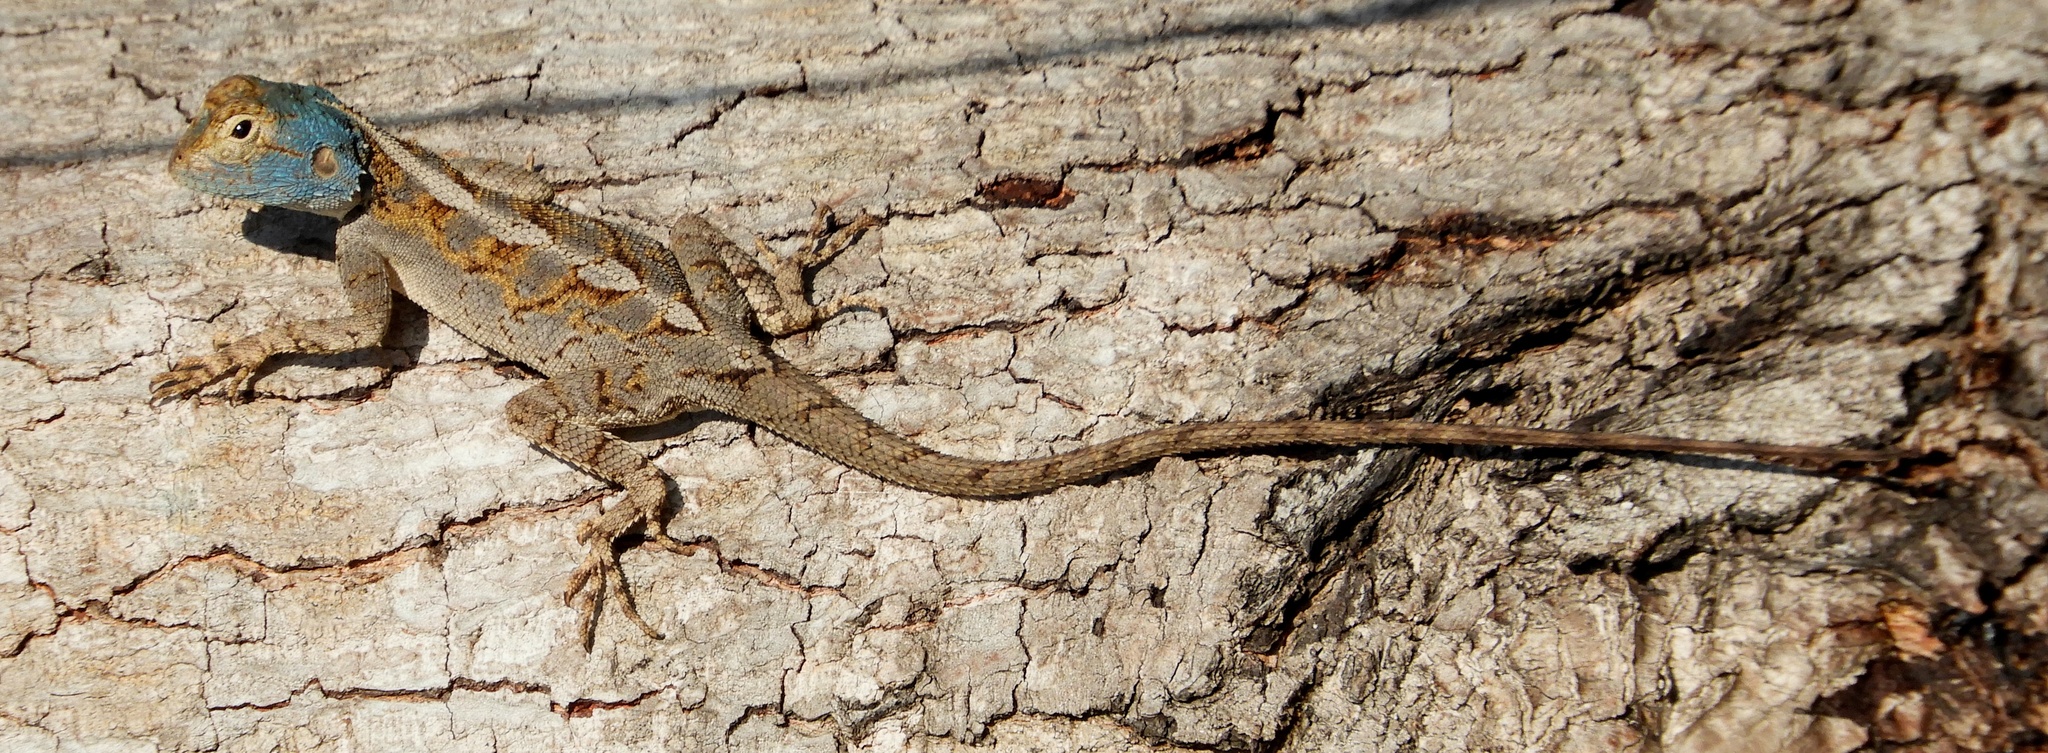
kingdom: Animalia
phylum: Chordata
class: Squamata
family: Agamidae
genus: Agama
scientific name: Agama mossambica
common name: Mozambique agama
